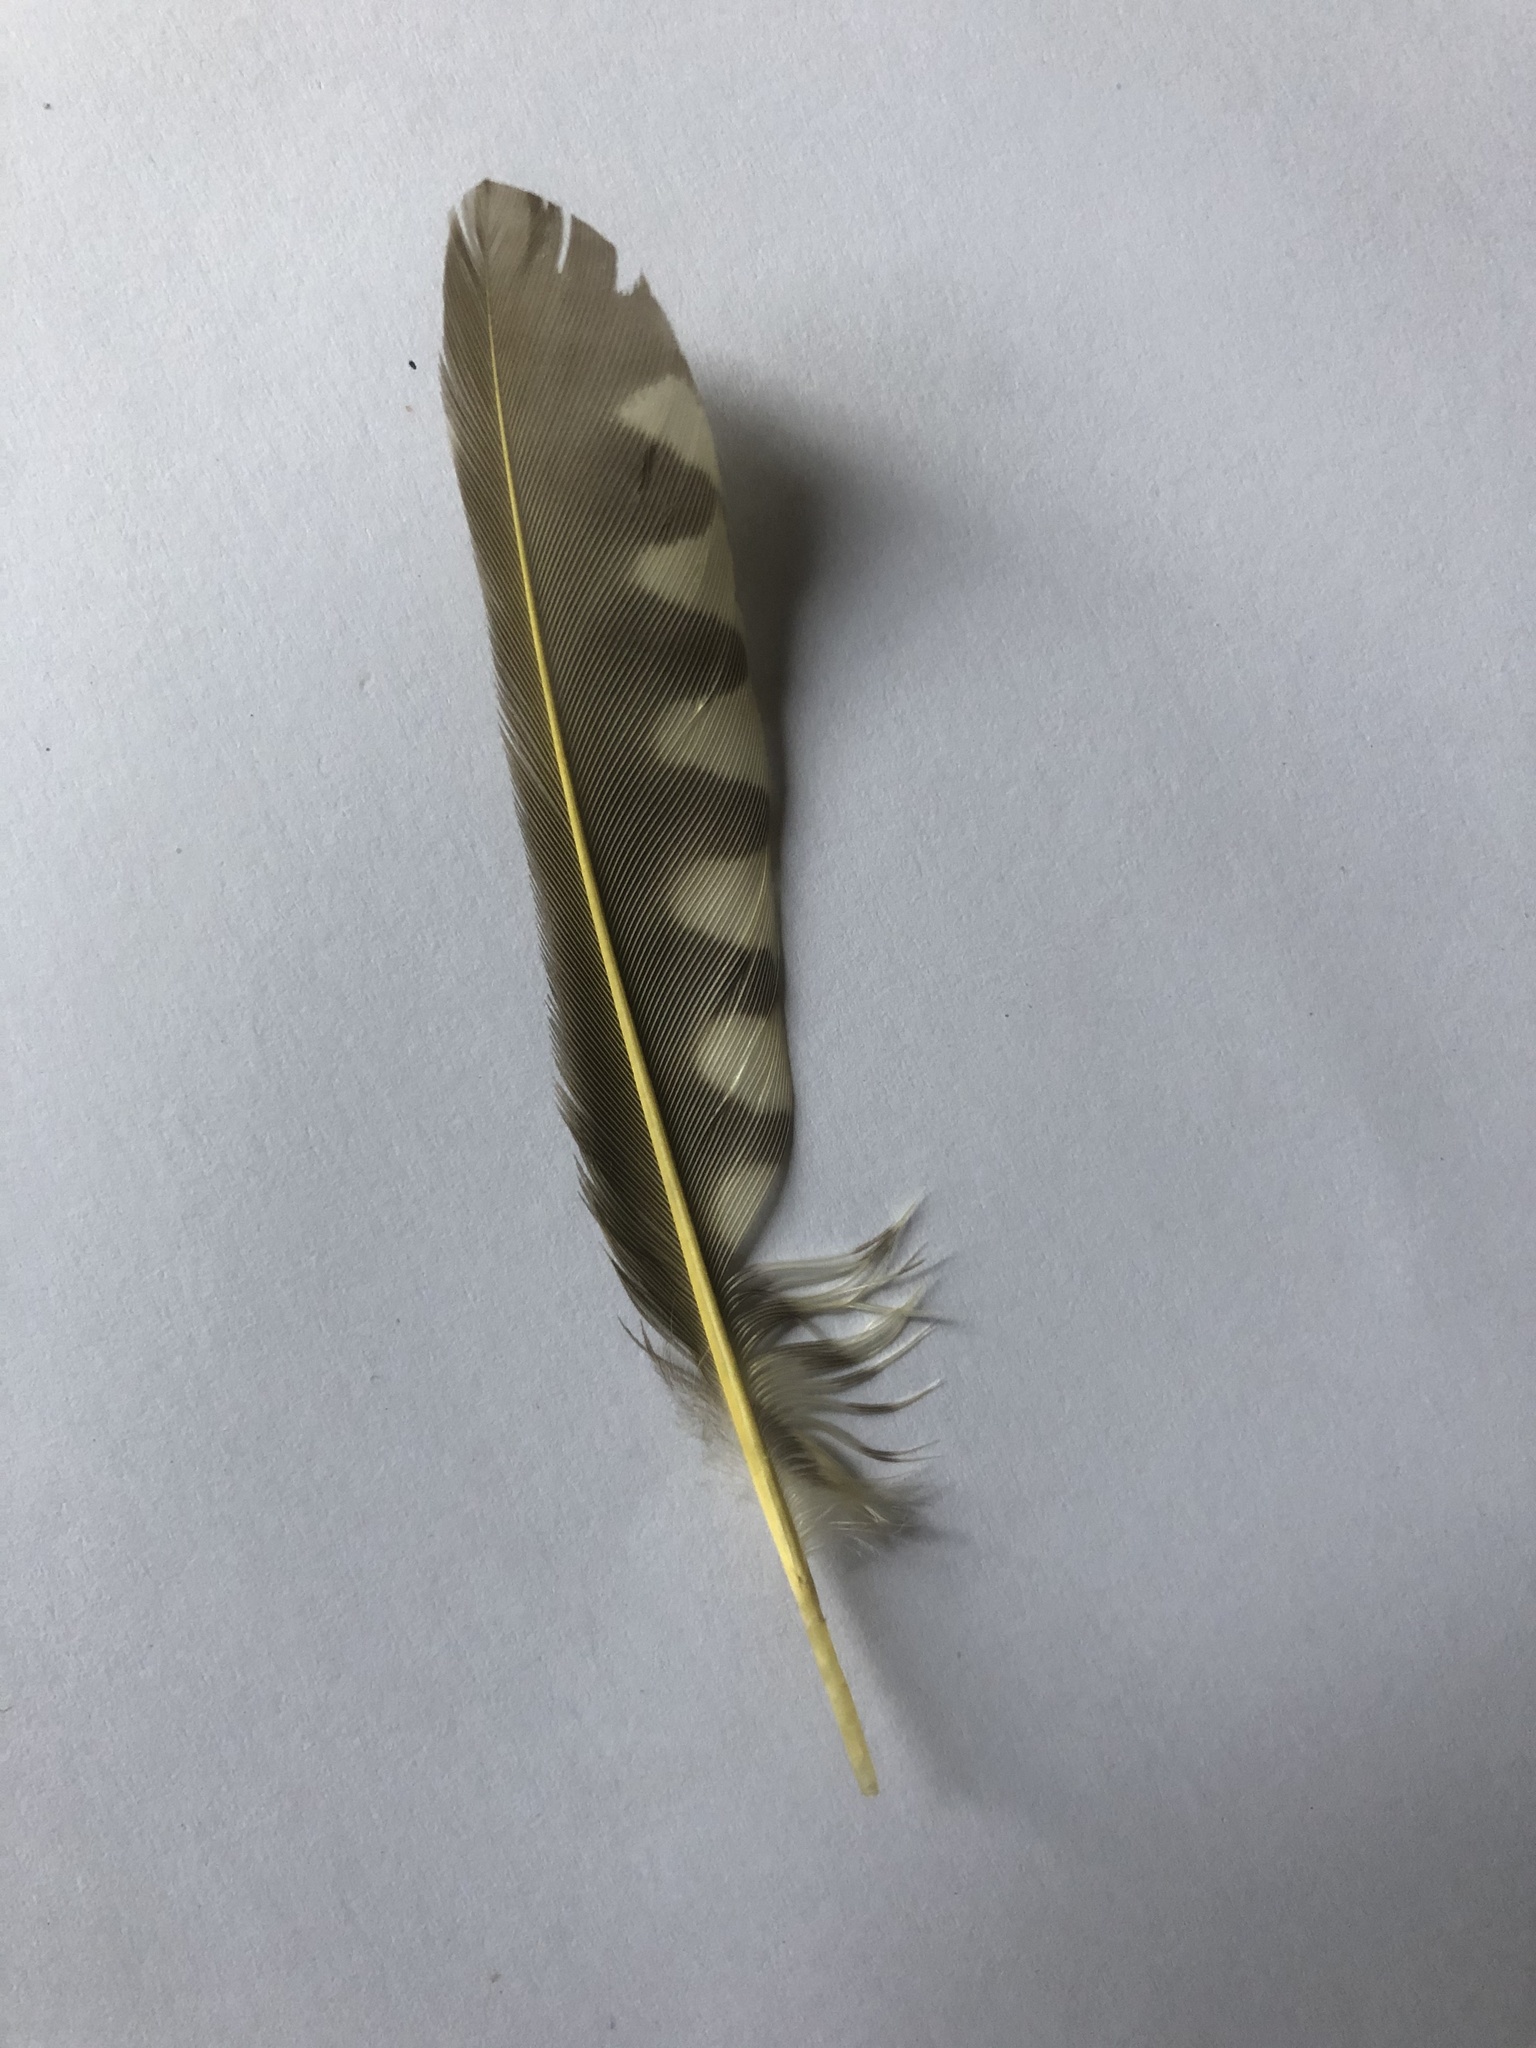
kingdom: Animalia
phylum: Chordata
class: Aves
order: Piciformes
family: Picidae
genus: Campethera
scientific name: Campethera abingoni
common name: Golden-tailed woodpecker
